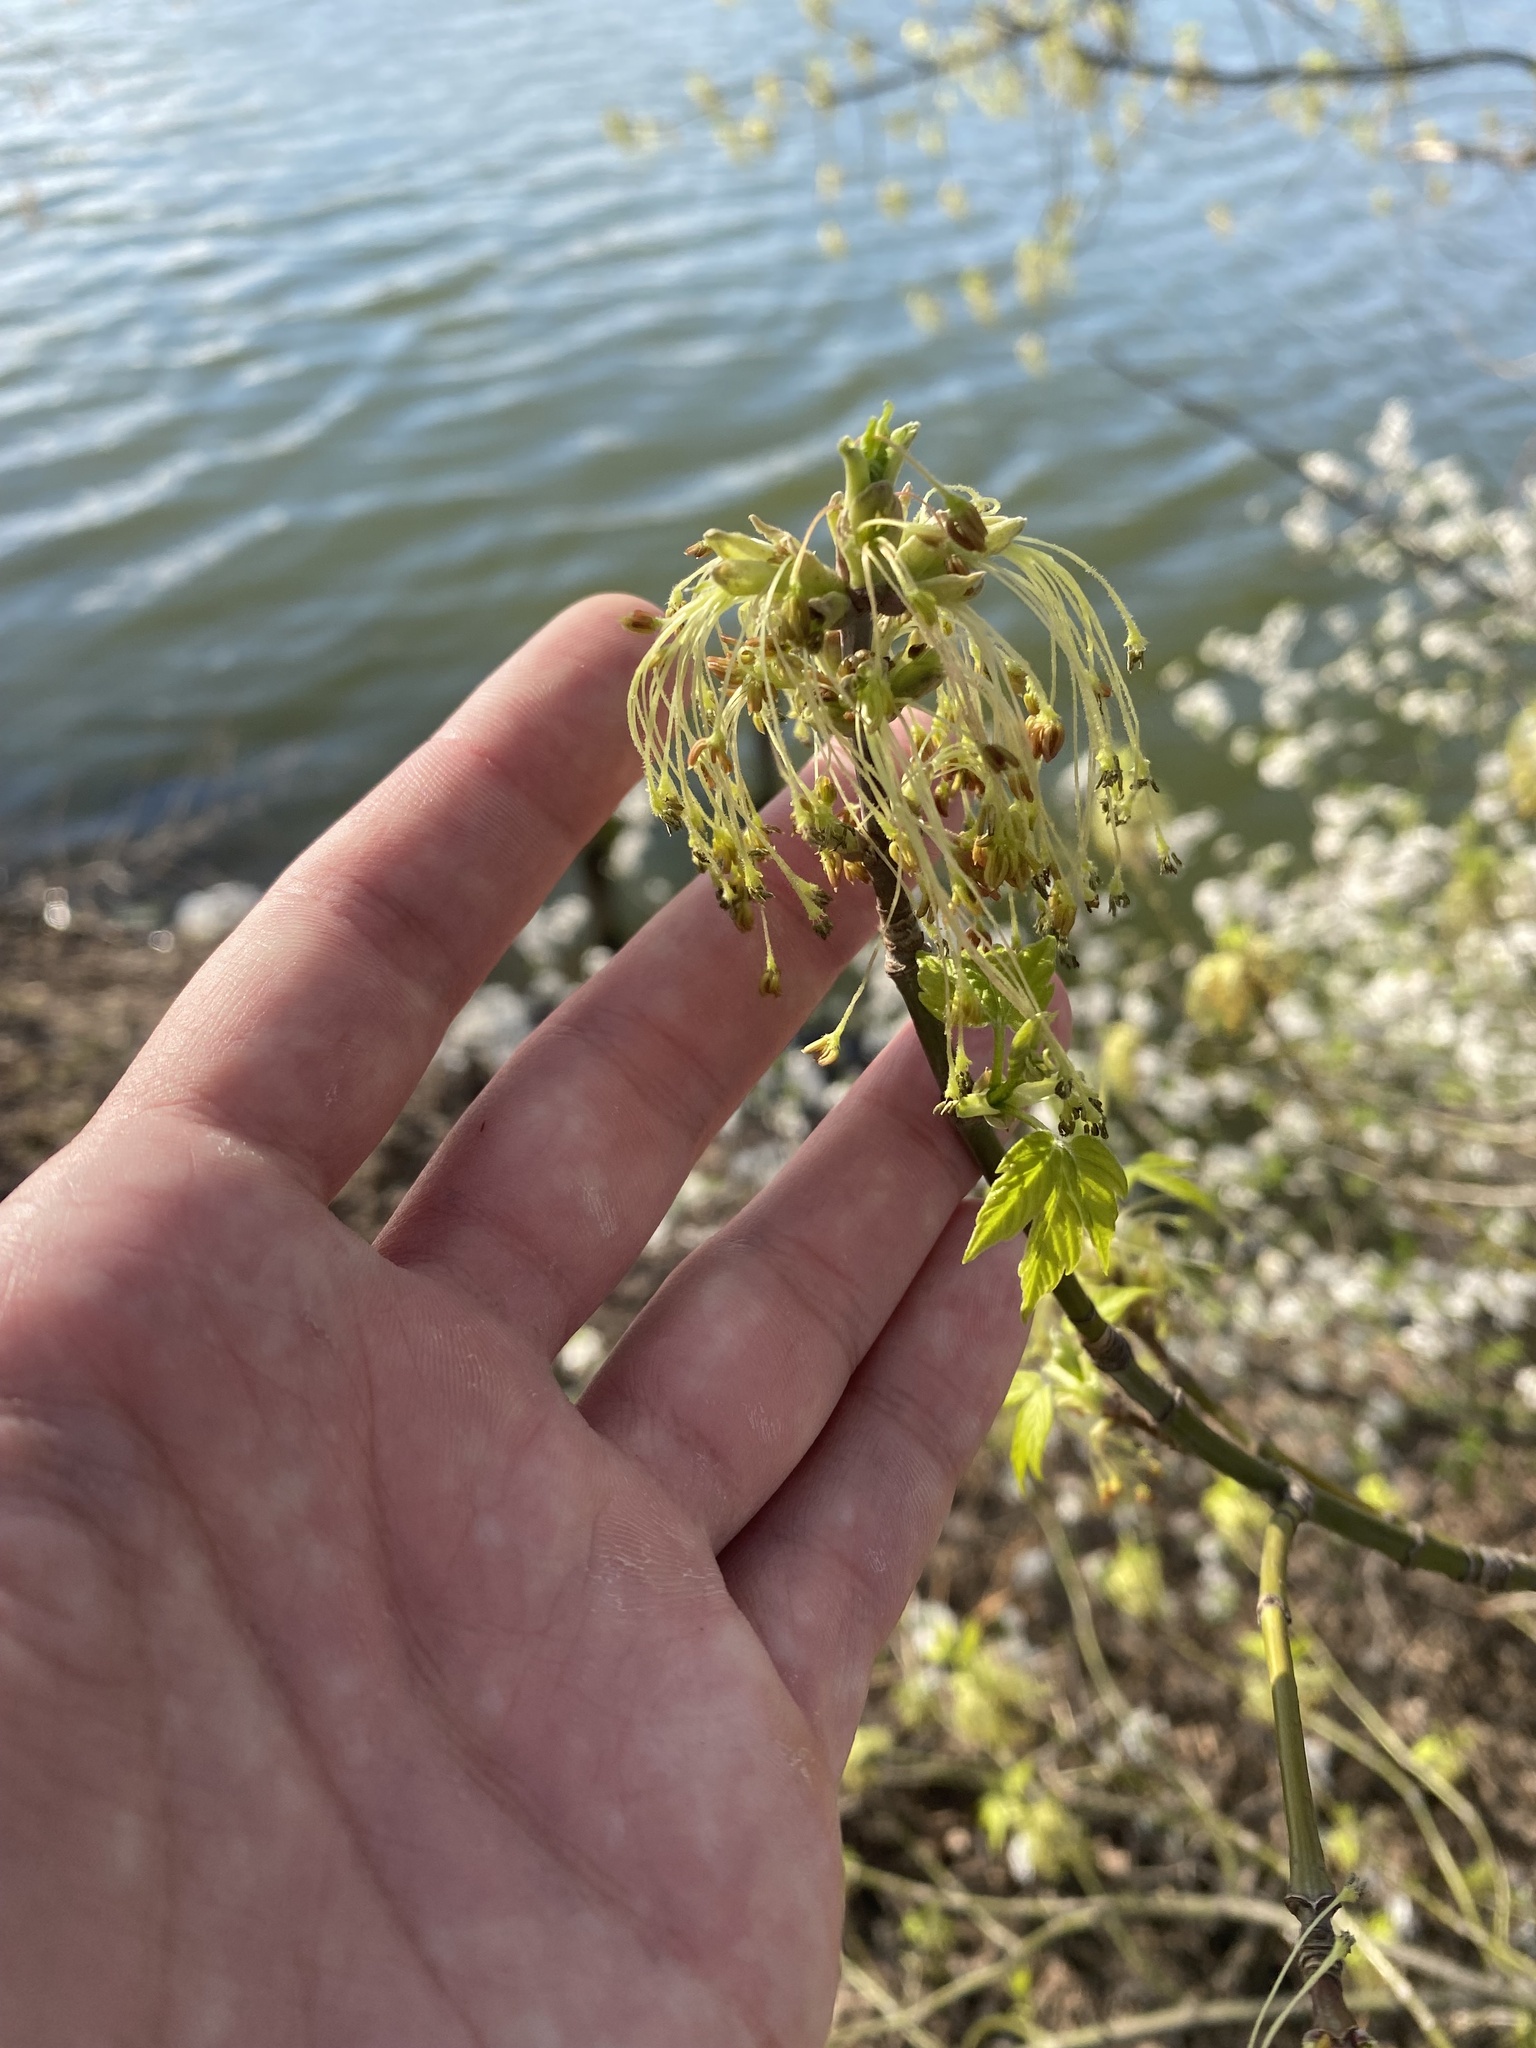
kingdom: Plantae
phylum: Tracheophyta
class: Magnoliopsida
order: Sapindales
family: Sapindaceae
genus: Acer
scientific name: Acer negundo
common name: Ashleaf maple
